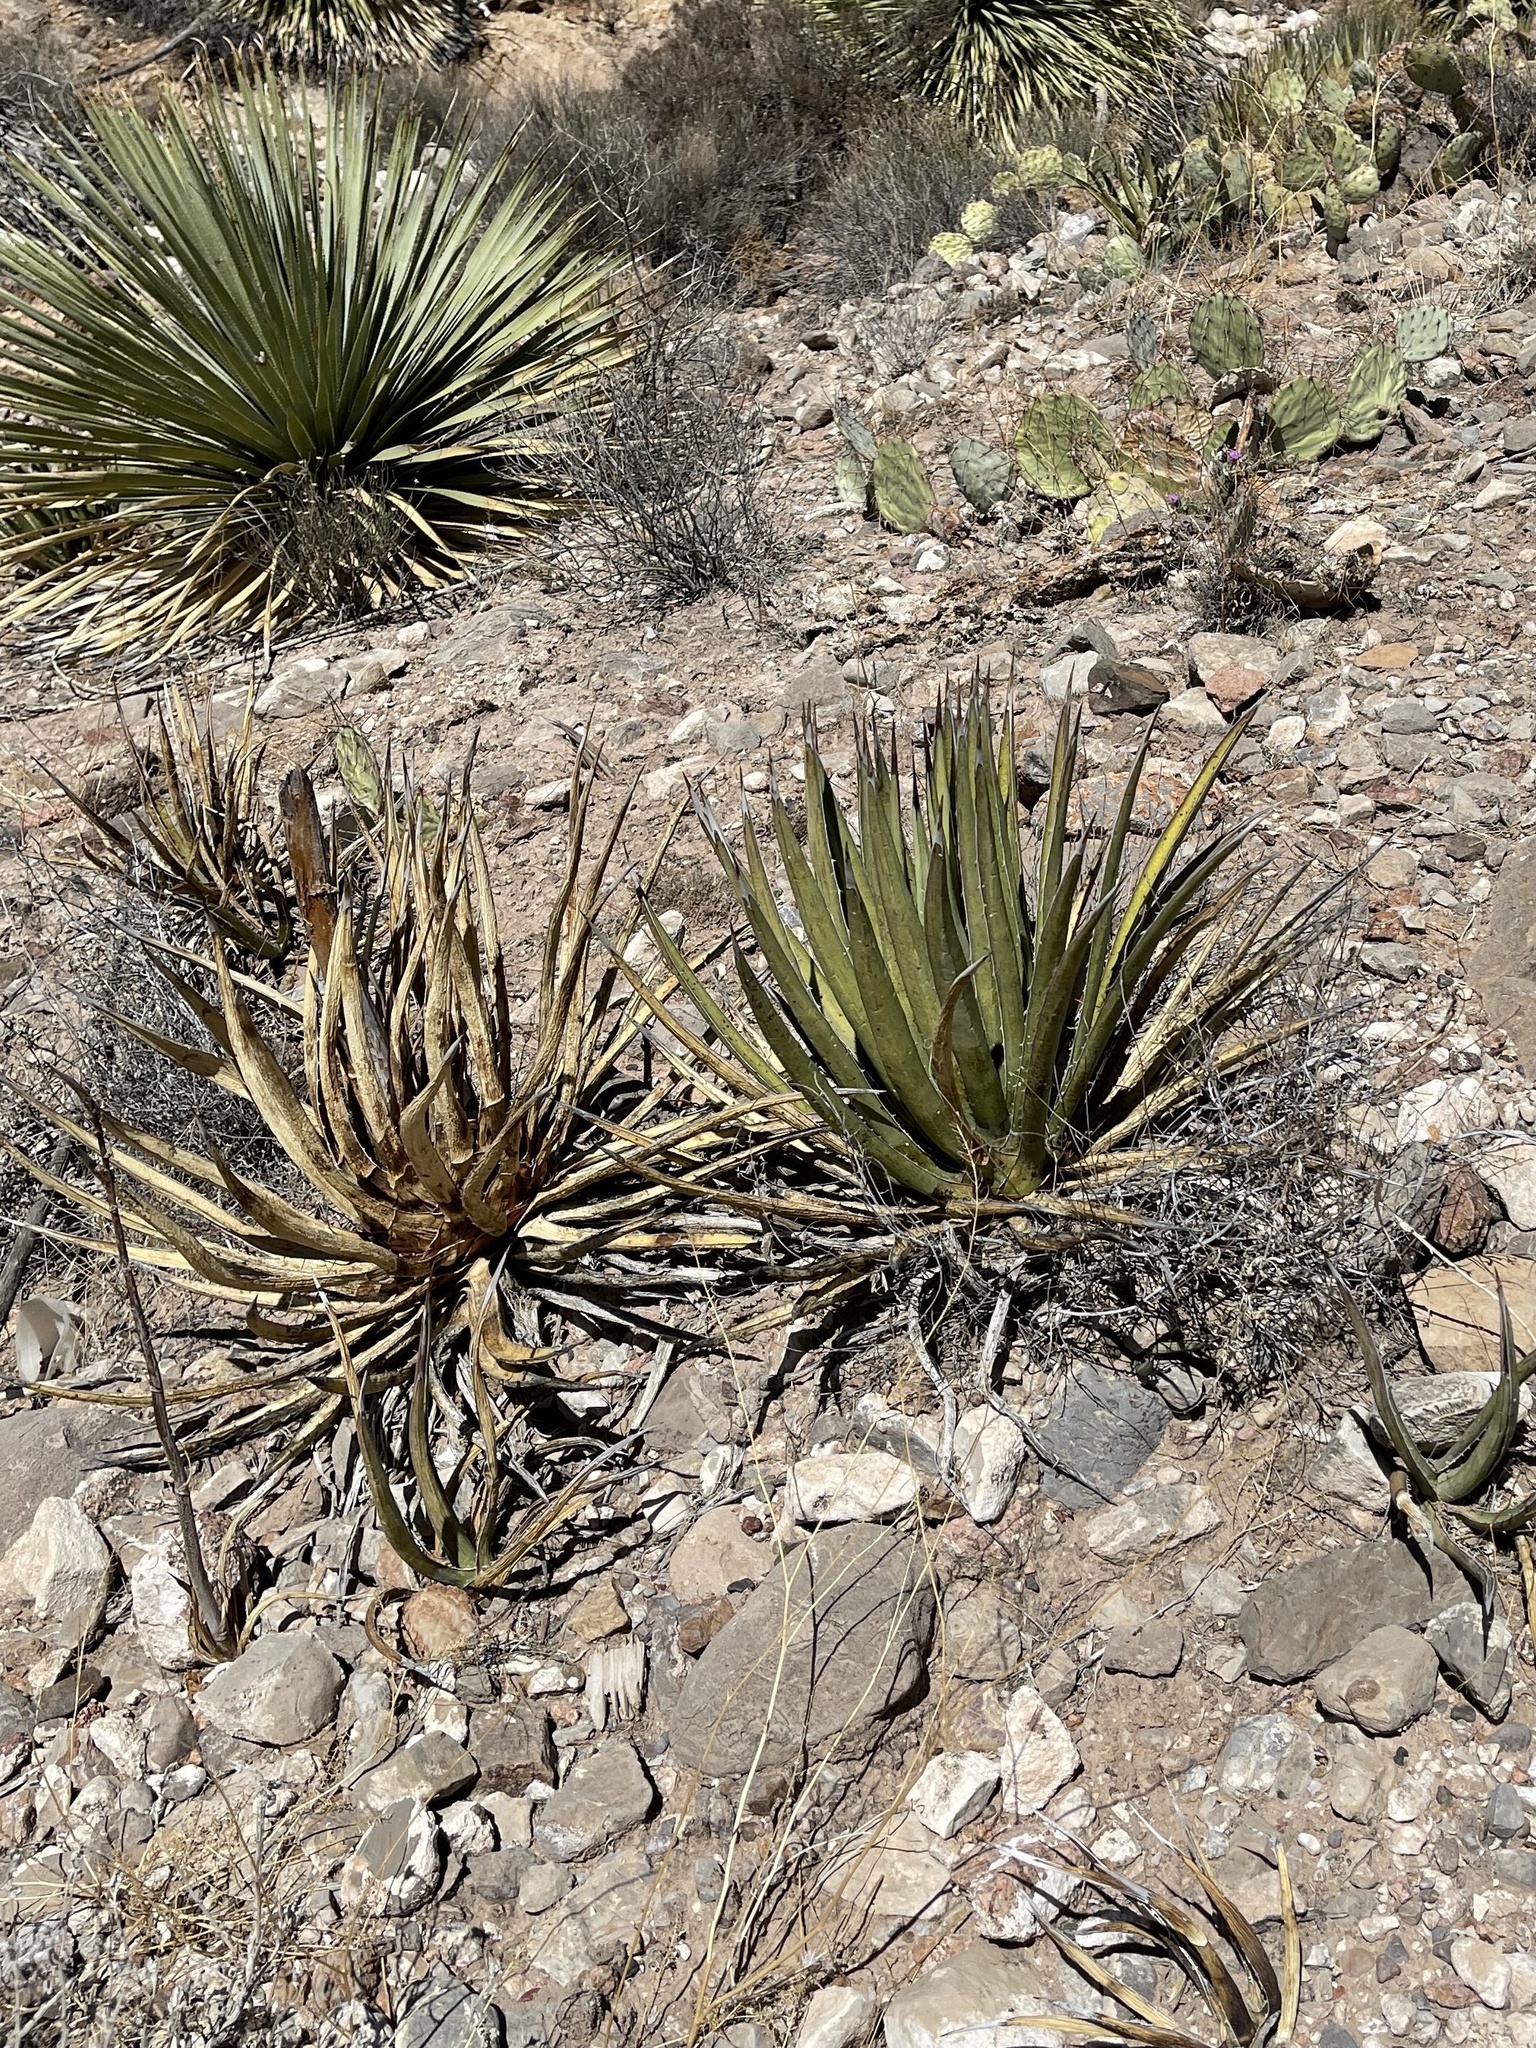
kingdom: Plantae
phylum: Tracheophyta
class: Liliopsida
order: Asparagales
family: Asparagaceae
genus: Agave
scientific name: Agave lechuguilla
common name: Lecheguilla agave
